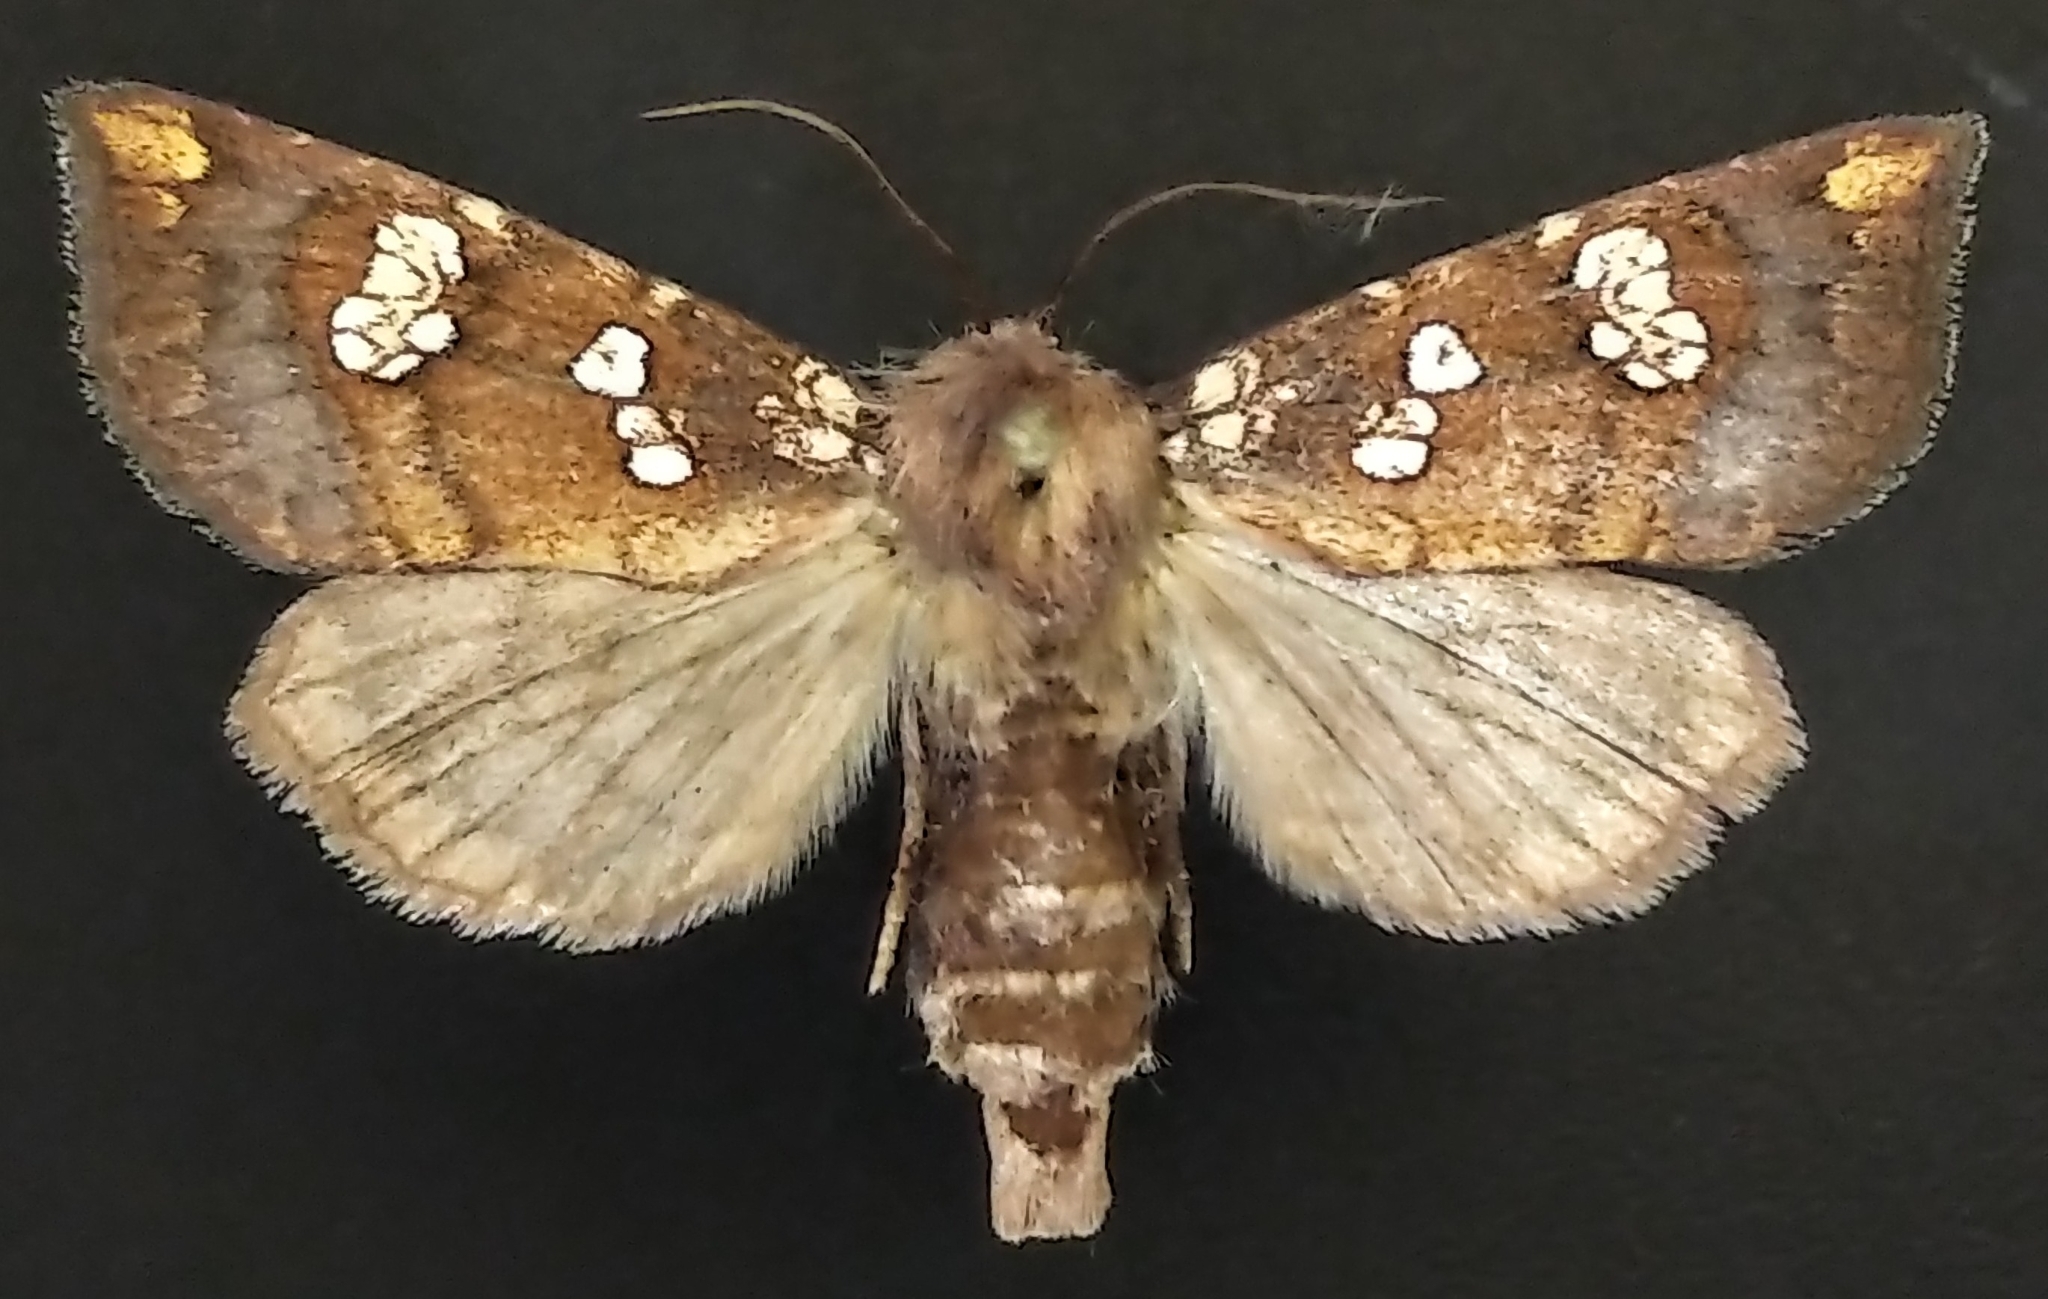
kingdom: Animalia
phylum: Arthropoda
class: Insecta
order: Lepidoptera
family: Noctuidae
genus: Papaipema
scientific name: Papaipema insulidens
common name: Ragwort stem borer moth
